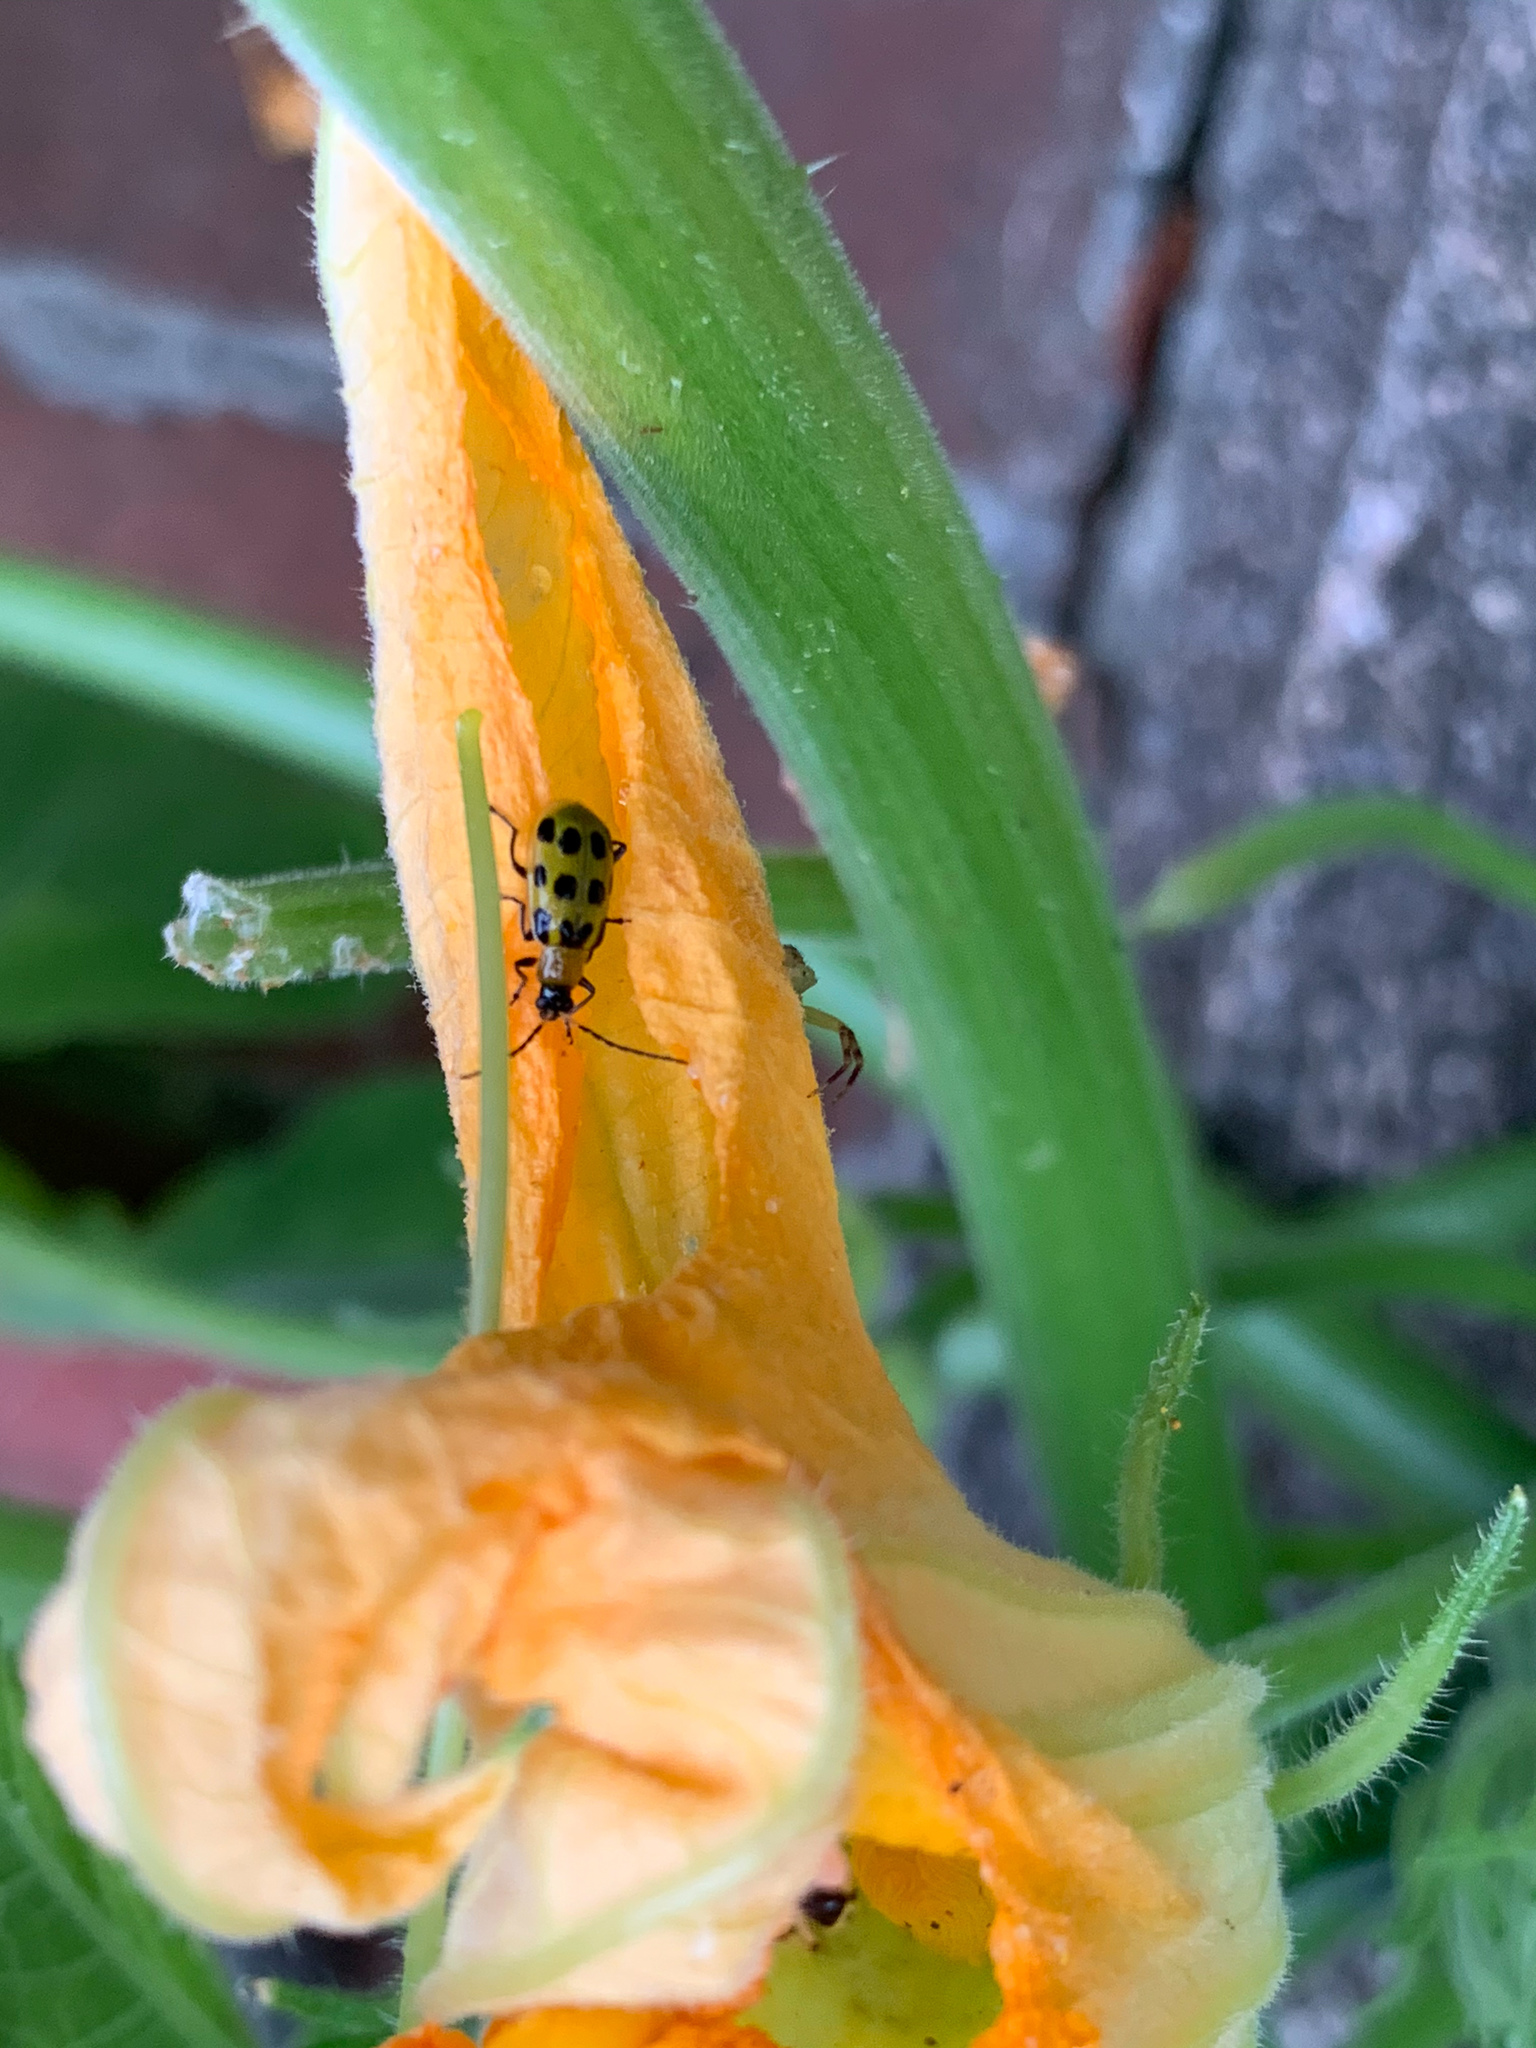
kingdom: Animalia
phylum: Arthropoda
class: Insecta
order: Coleoptera
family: Chrysomelidae
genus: Diabrotica
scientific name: Diabrotica undecimpunctata
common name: Spotted cucumber beetle
